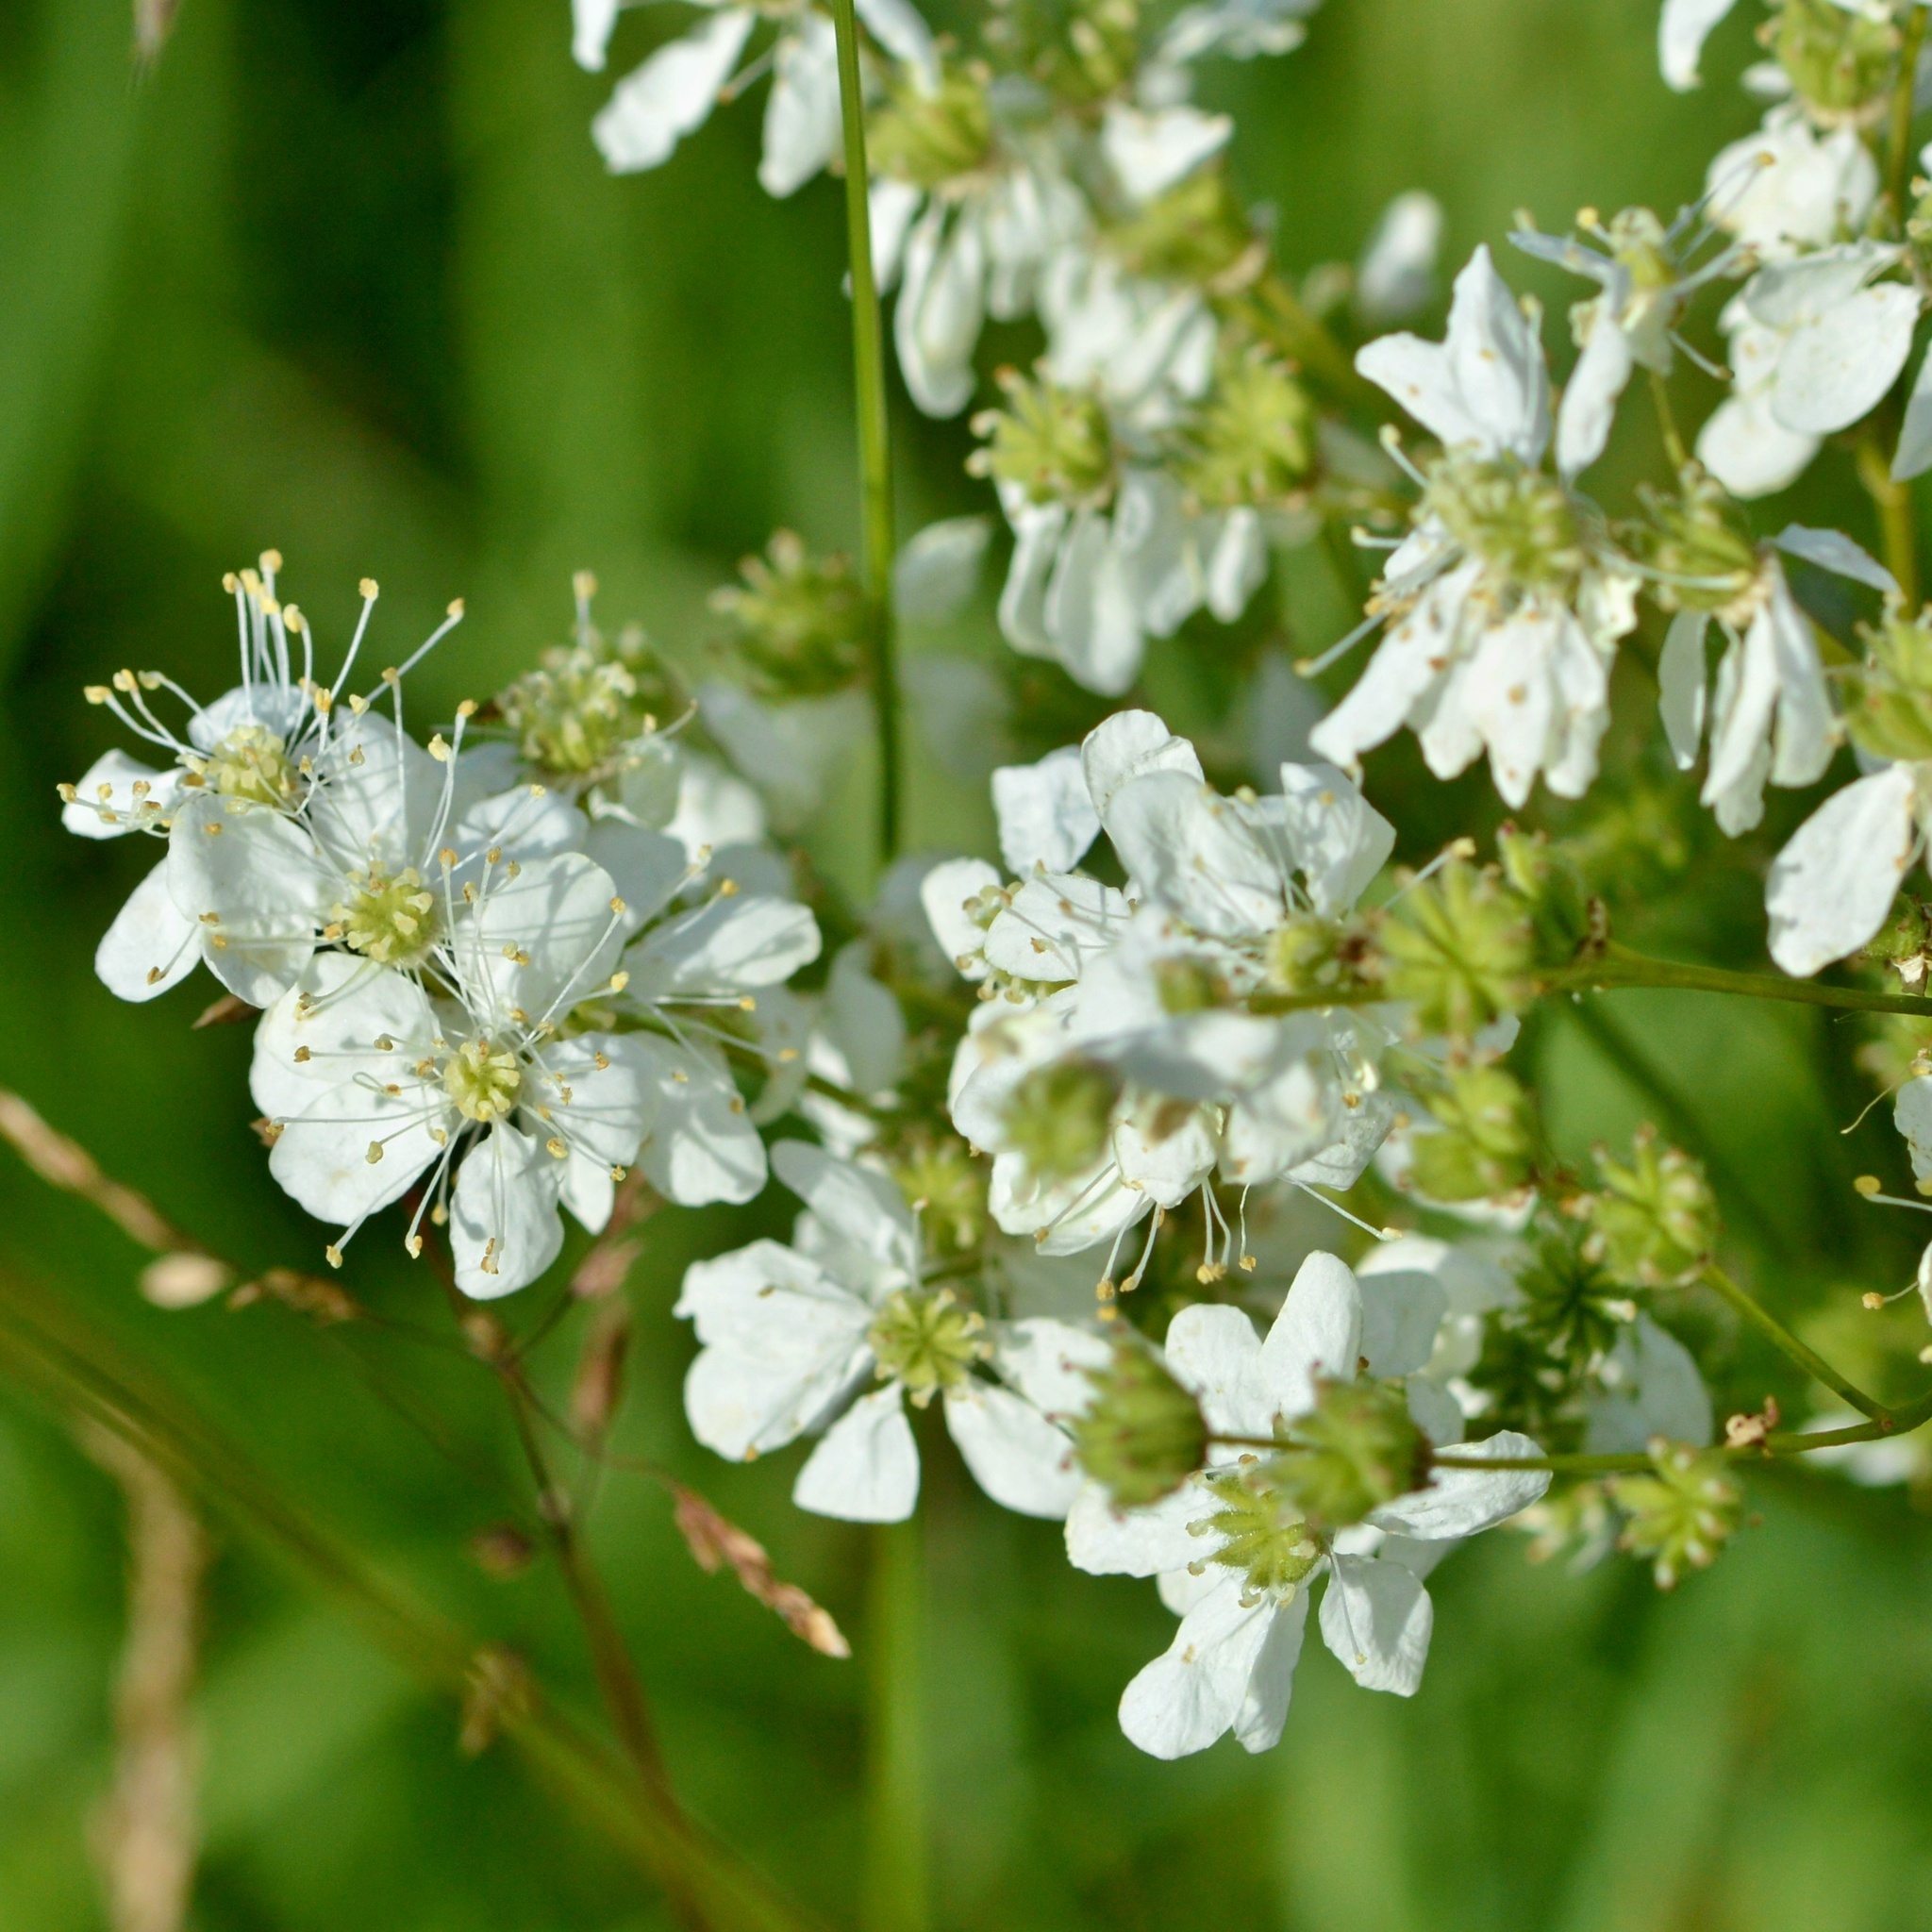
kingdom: Plantae
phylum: Tracheophyta
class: Magnoliopsida
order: Rosales
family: Rosaceae
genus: Filipendula
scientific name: Filipendula vulgaris
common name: Dropwort
